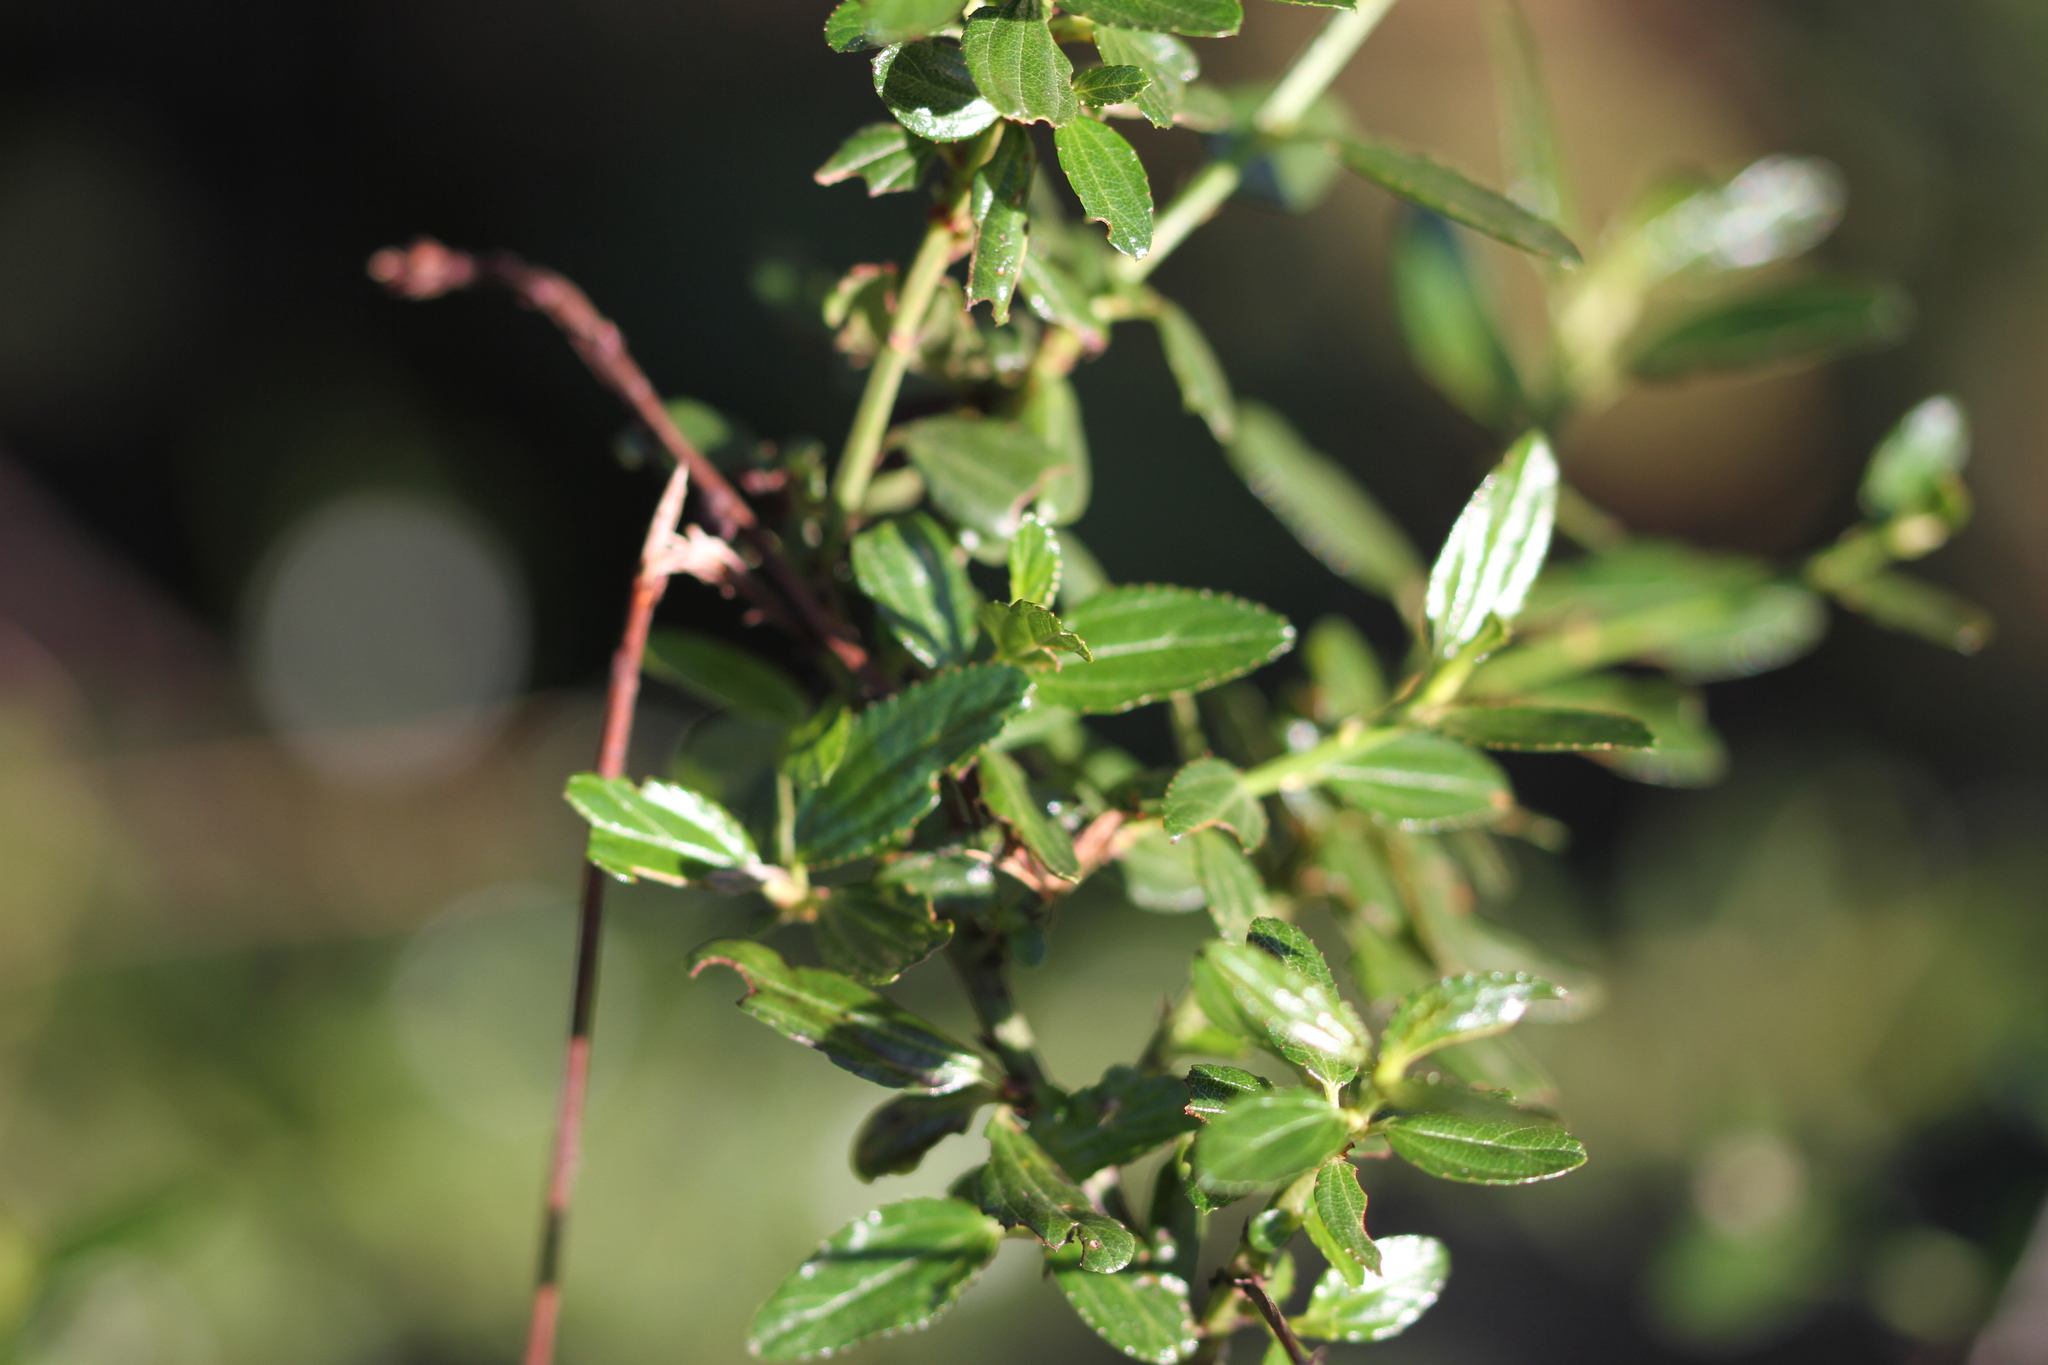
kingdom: Plantae
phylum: Tracheophyta
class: Magnoliopsida
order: Rosales
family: Rhamnaceae
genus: Ceanothus
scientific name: Ceanothus thyrsiflorus
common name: California-lilac
